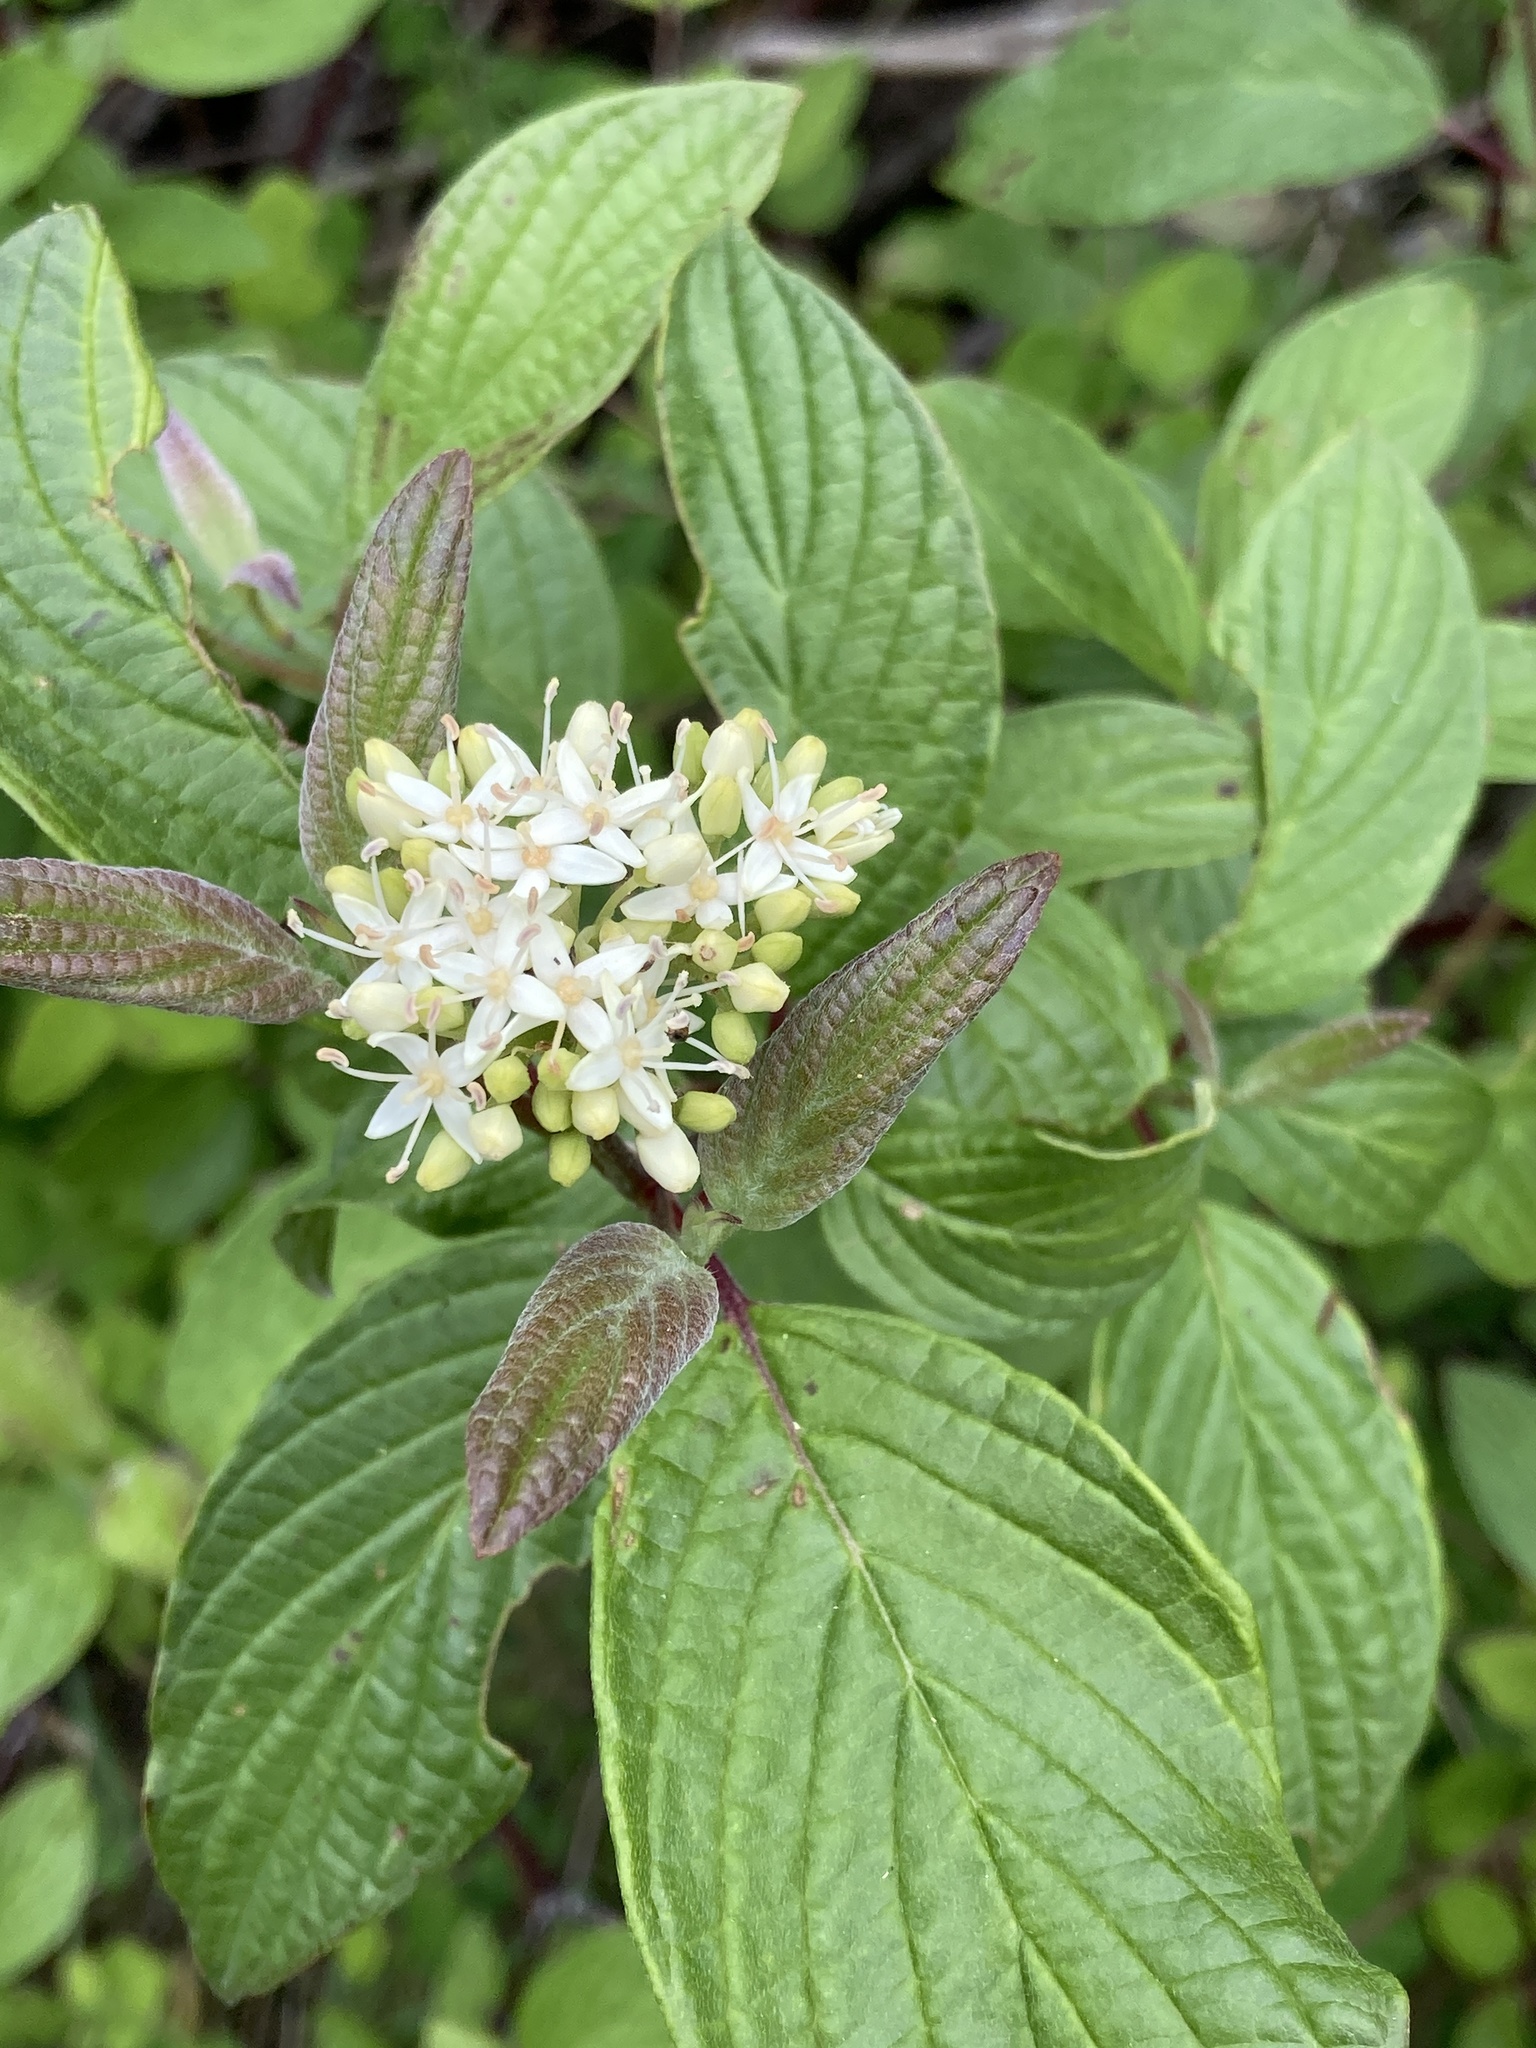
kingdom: Plantae
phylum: Tracheophyta
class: Magnoliopsida
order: Cornales
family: Cornaceae
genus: Cornus
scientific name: Cornus sericea
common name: Red-osier dogwood
